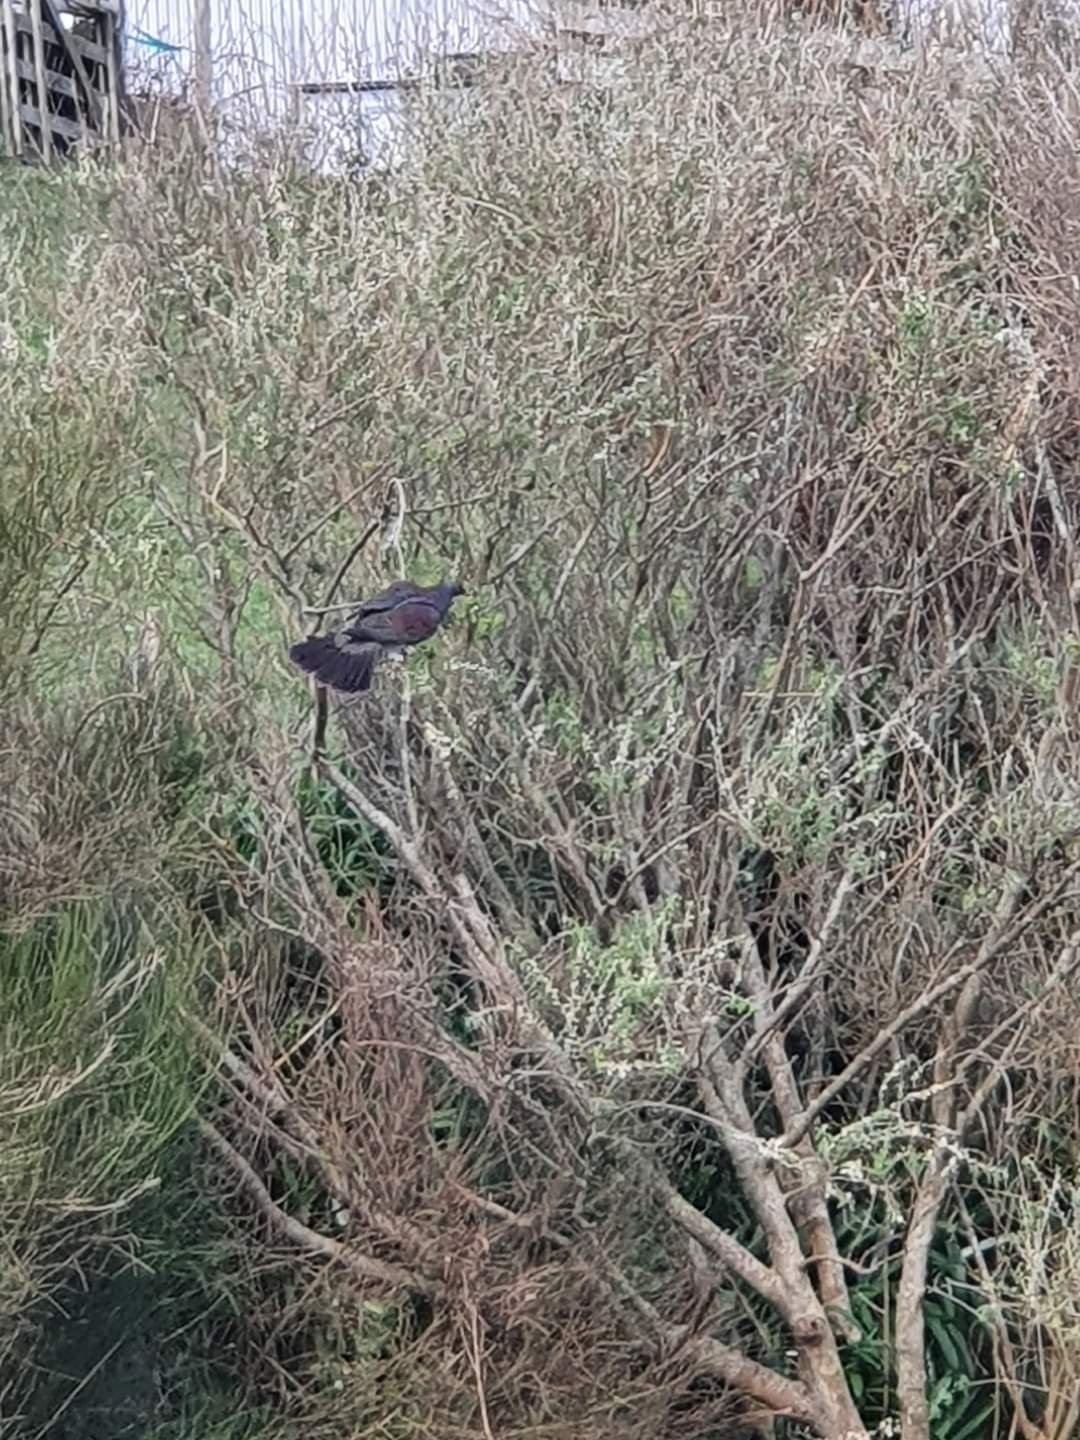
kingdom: Animalia
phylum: Chordata
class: Aves
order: Columbiformes
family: Columbidae
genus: Hemiphaga
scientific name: Hemiphaga novaeseelandiae
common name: New zealand pigeon
